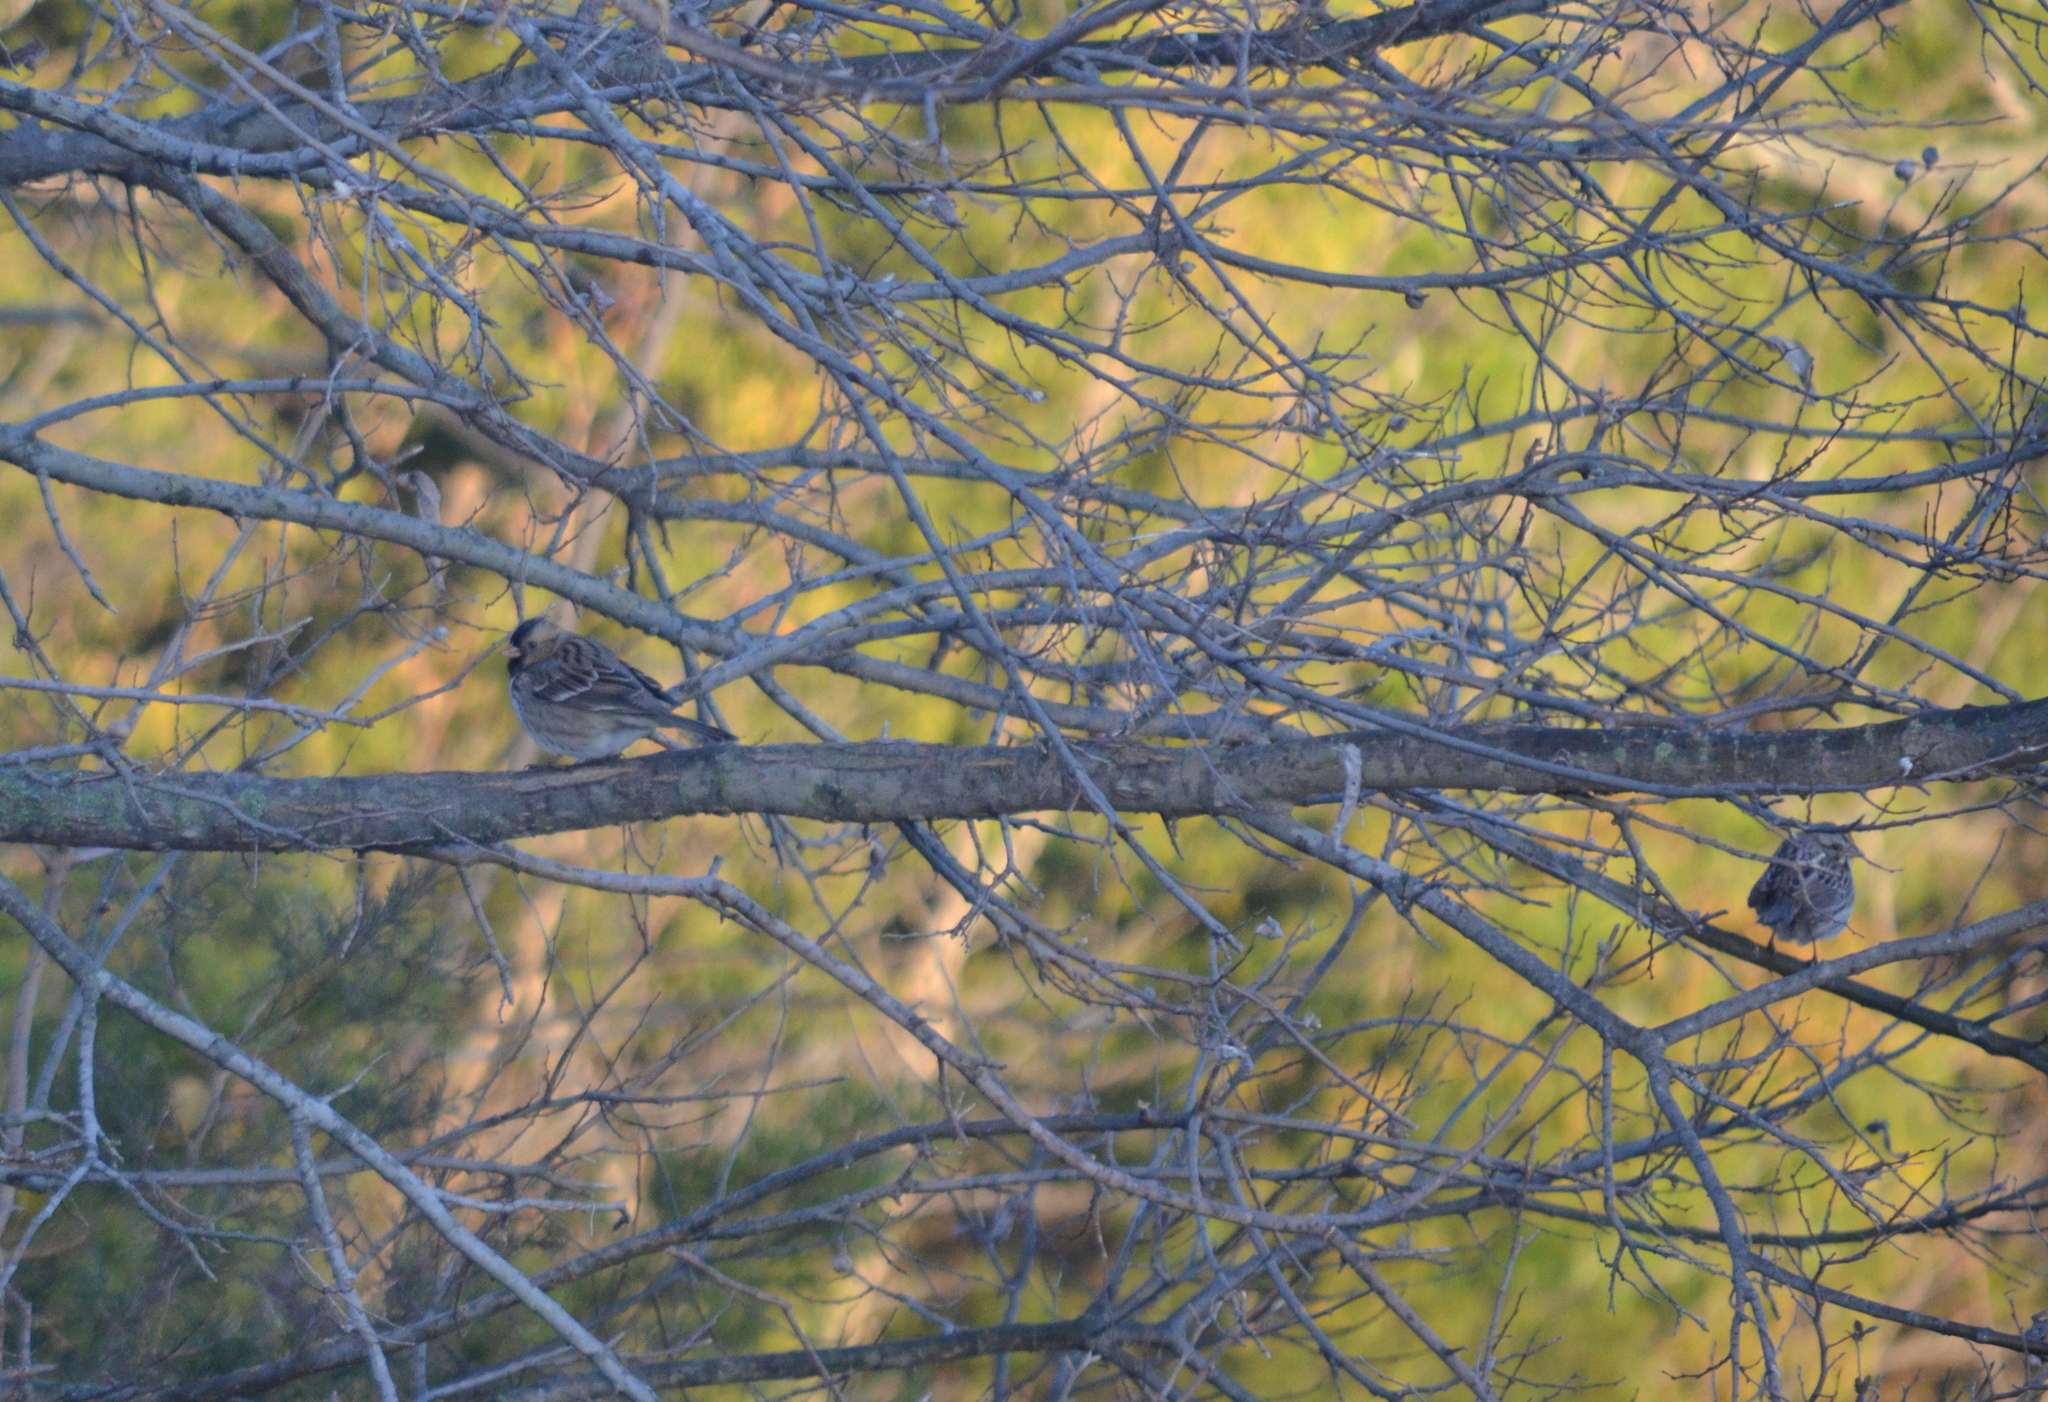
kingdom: Animalia
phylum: Chordata
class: Aves
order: Passeriformes
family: Passerellidae
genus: Zonotrichia
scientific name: Zonotrichia querula
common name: Harris's sparrow
